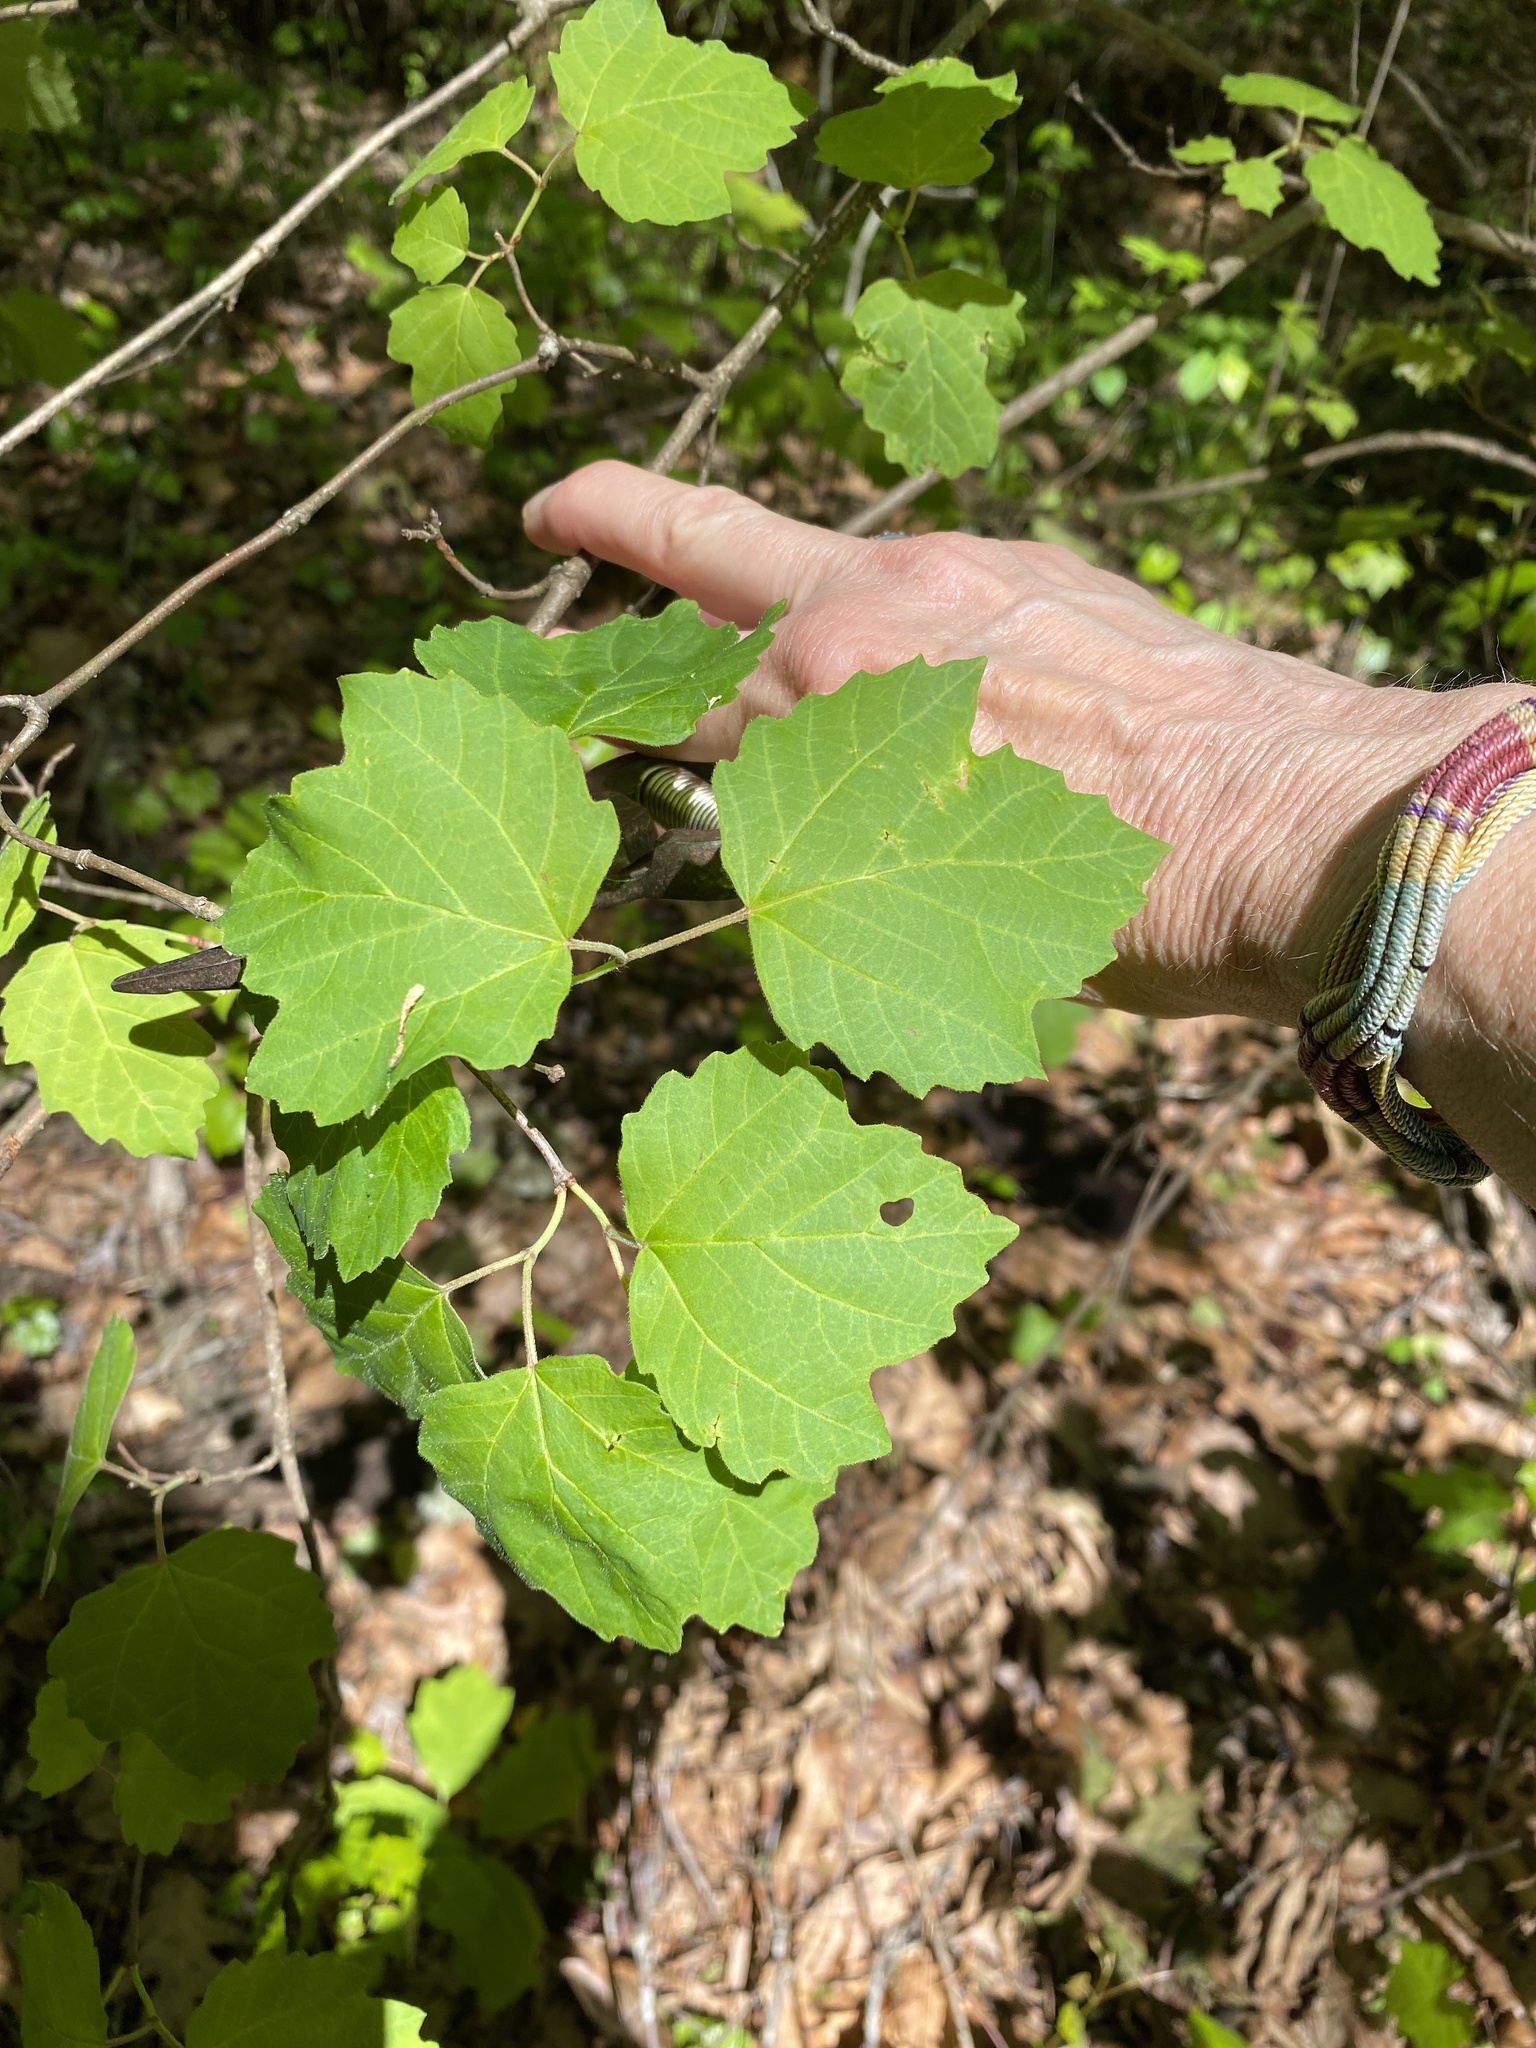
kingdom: Plantae
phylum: Tracheophyta
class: Magnoliopsida
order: Dipsacales
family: Viburnaceae
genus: Viburnum
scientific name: Viburnum acerifolium
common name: Dockmackie
